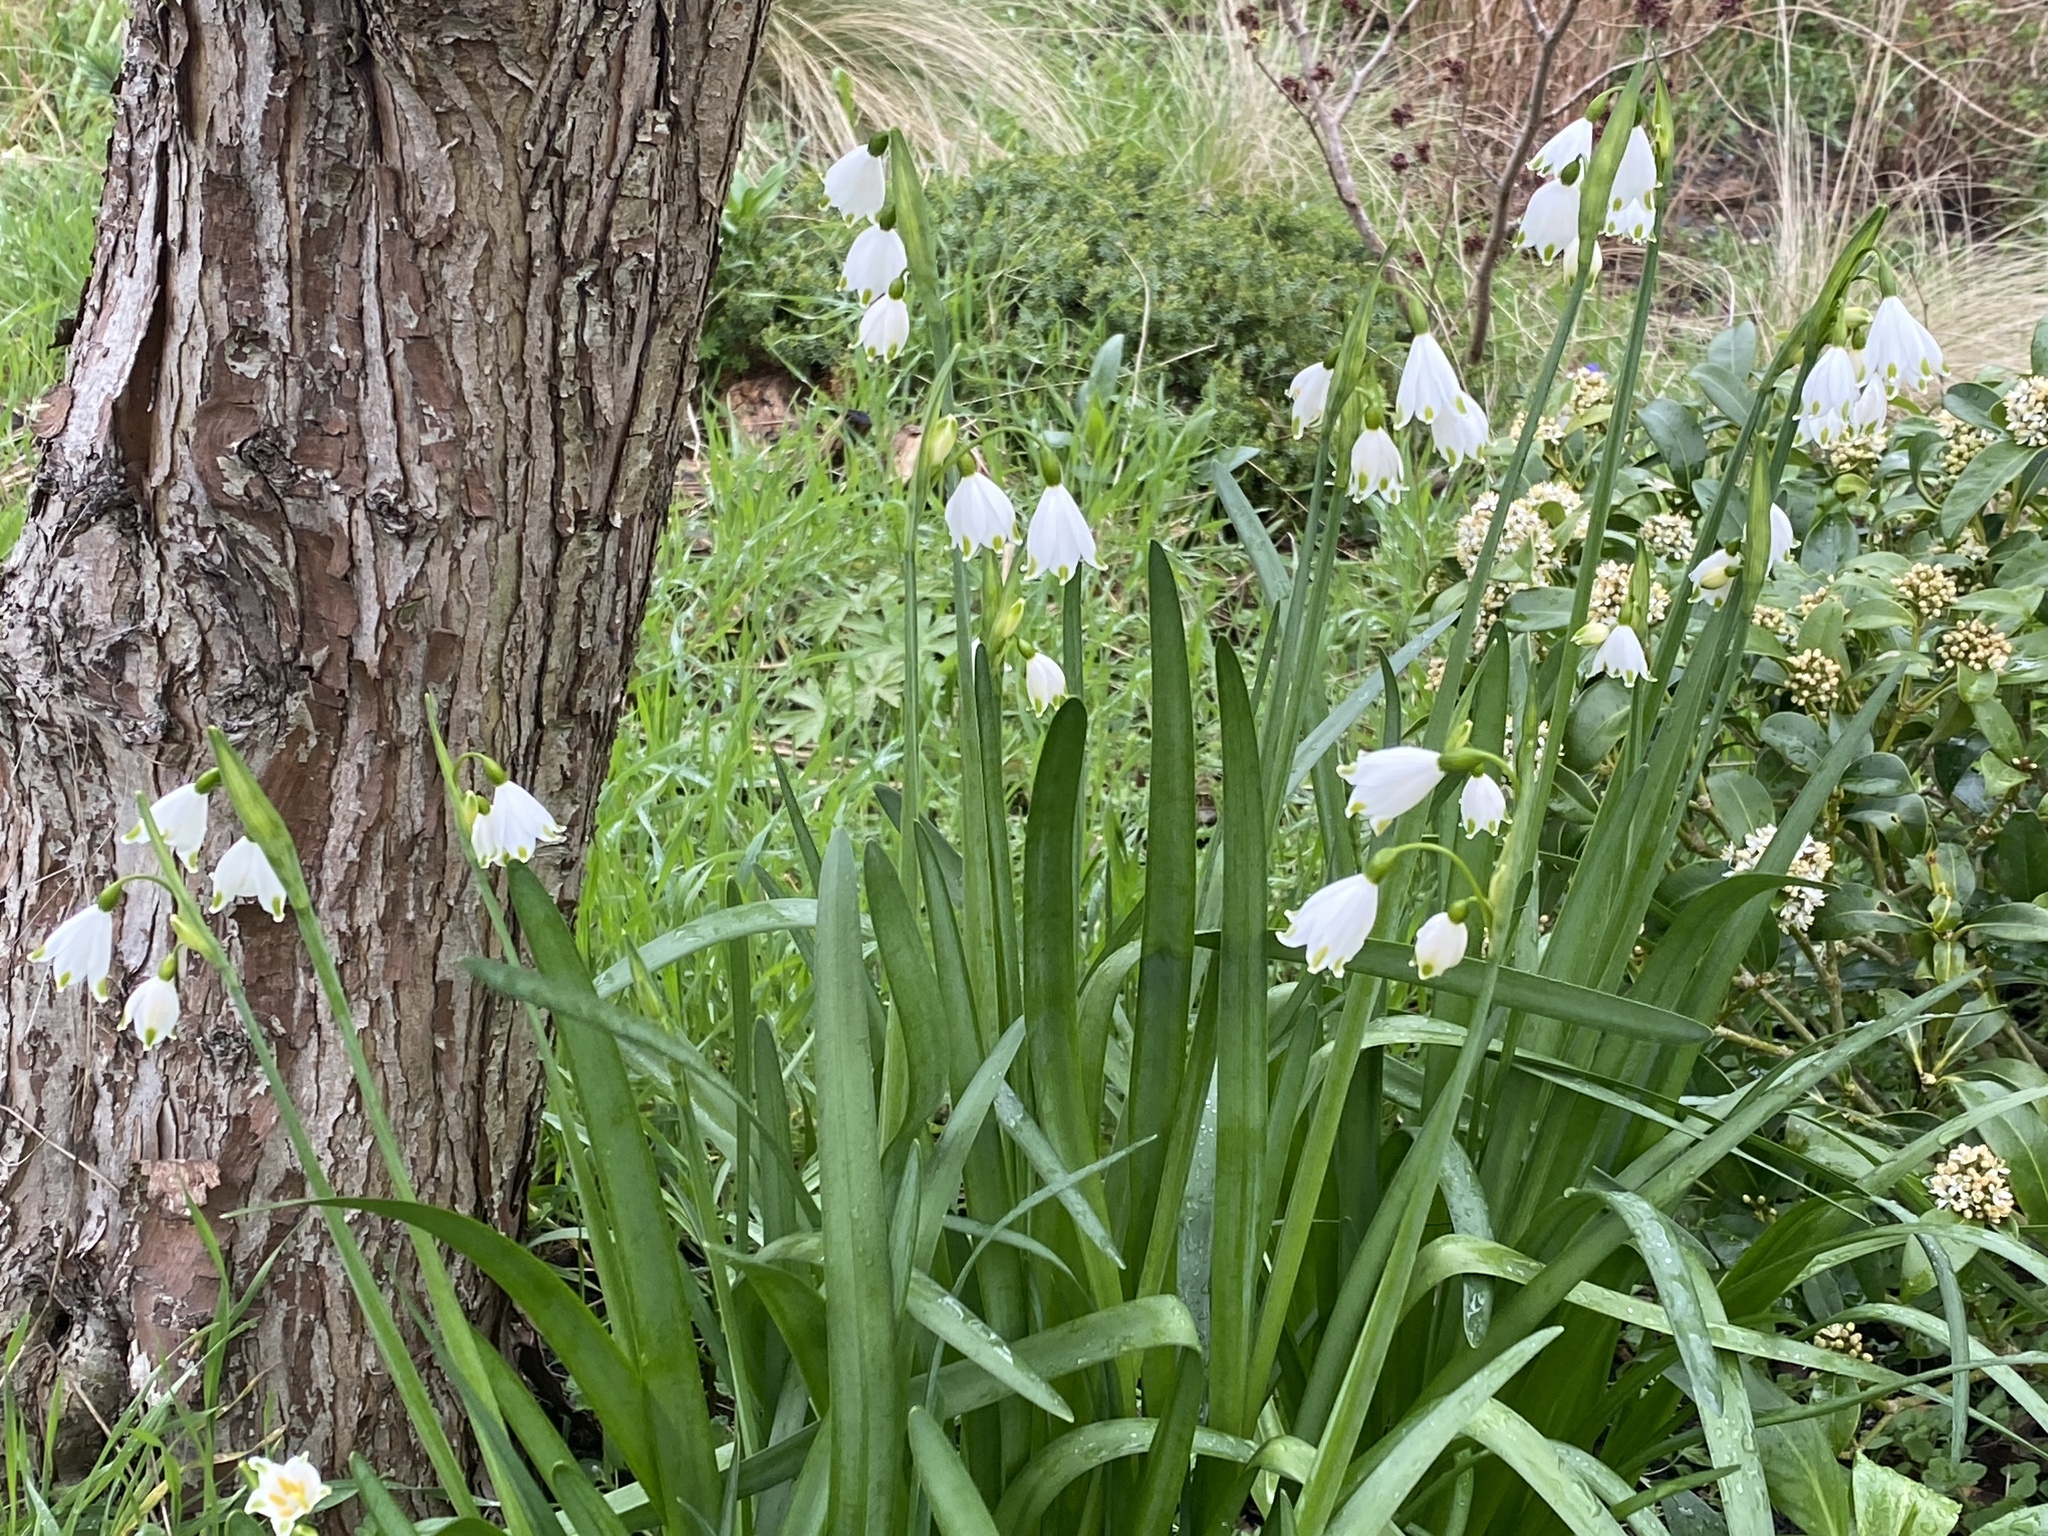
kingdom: Plantae
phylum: Tracheophyta
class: Liliopsida
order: Asparagales
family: Amaryllidaceae
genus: Leucojum
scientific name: Leucojum aestivum
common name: Summer snowflake
